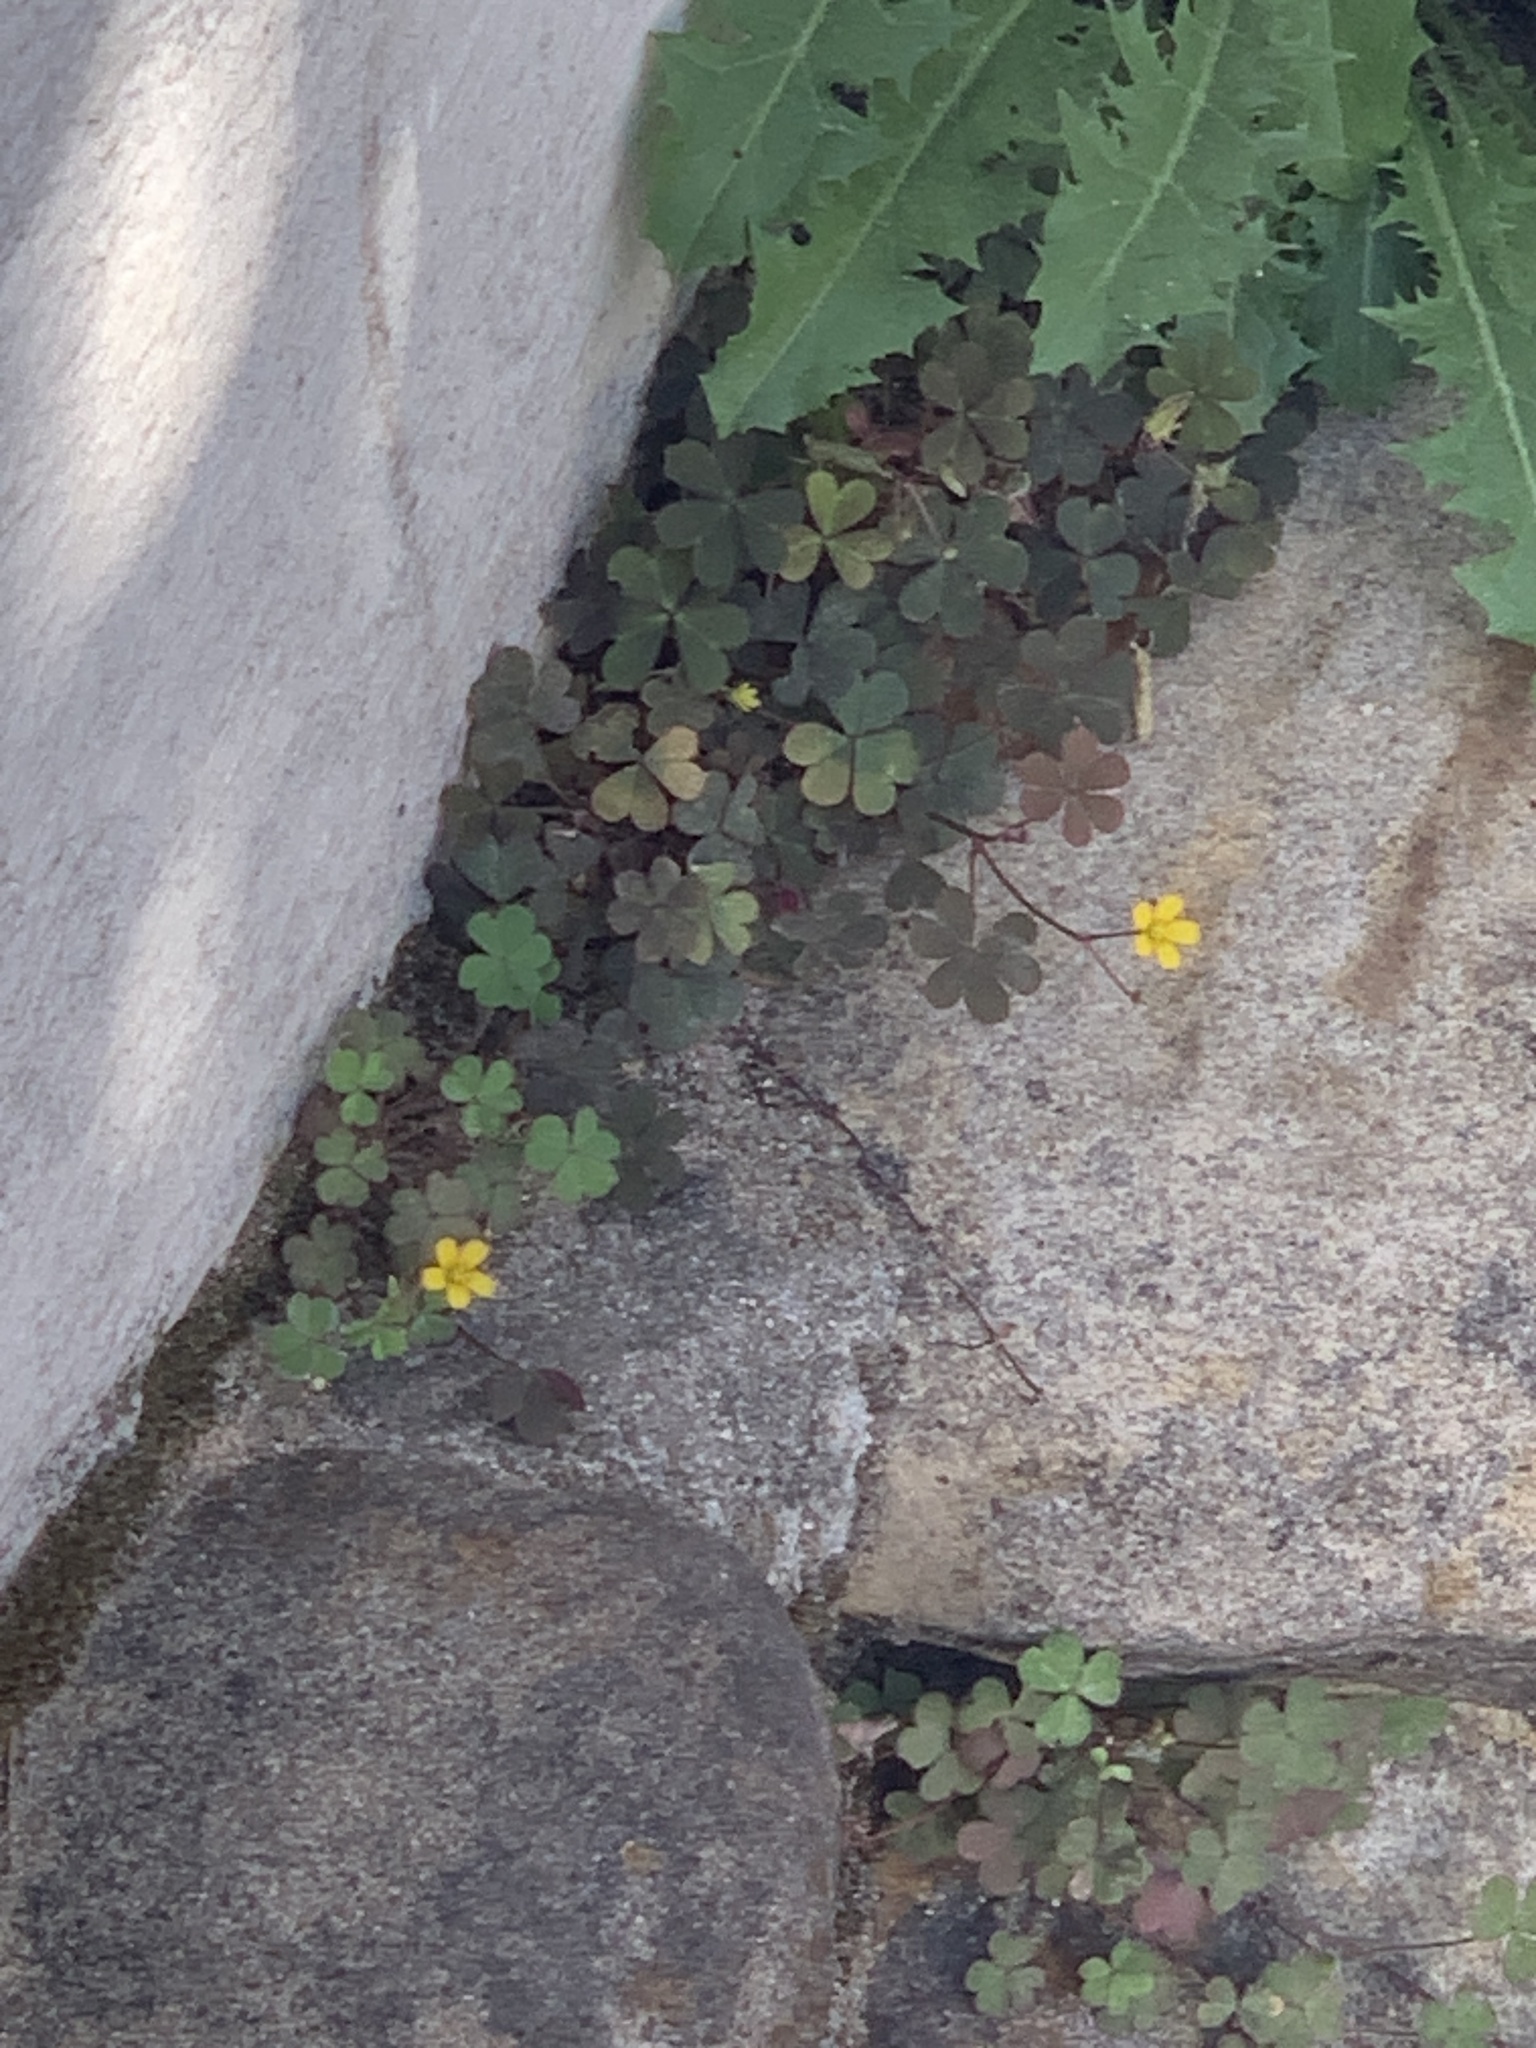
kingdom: Plantae
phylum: Tracheophyta
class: Magnoliopsida
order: Oxalidales
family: Oxalidaceae
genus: Oxalis
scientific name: Oxalis corniculata
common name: Procumbent yellow-sorrel
